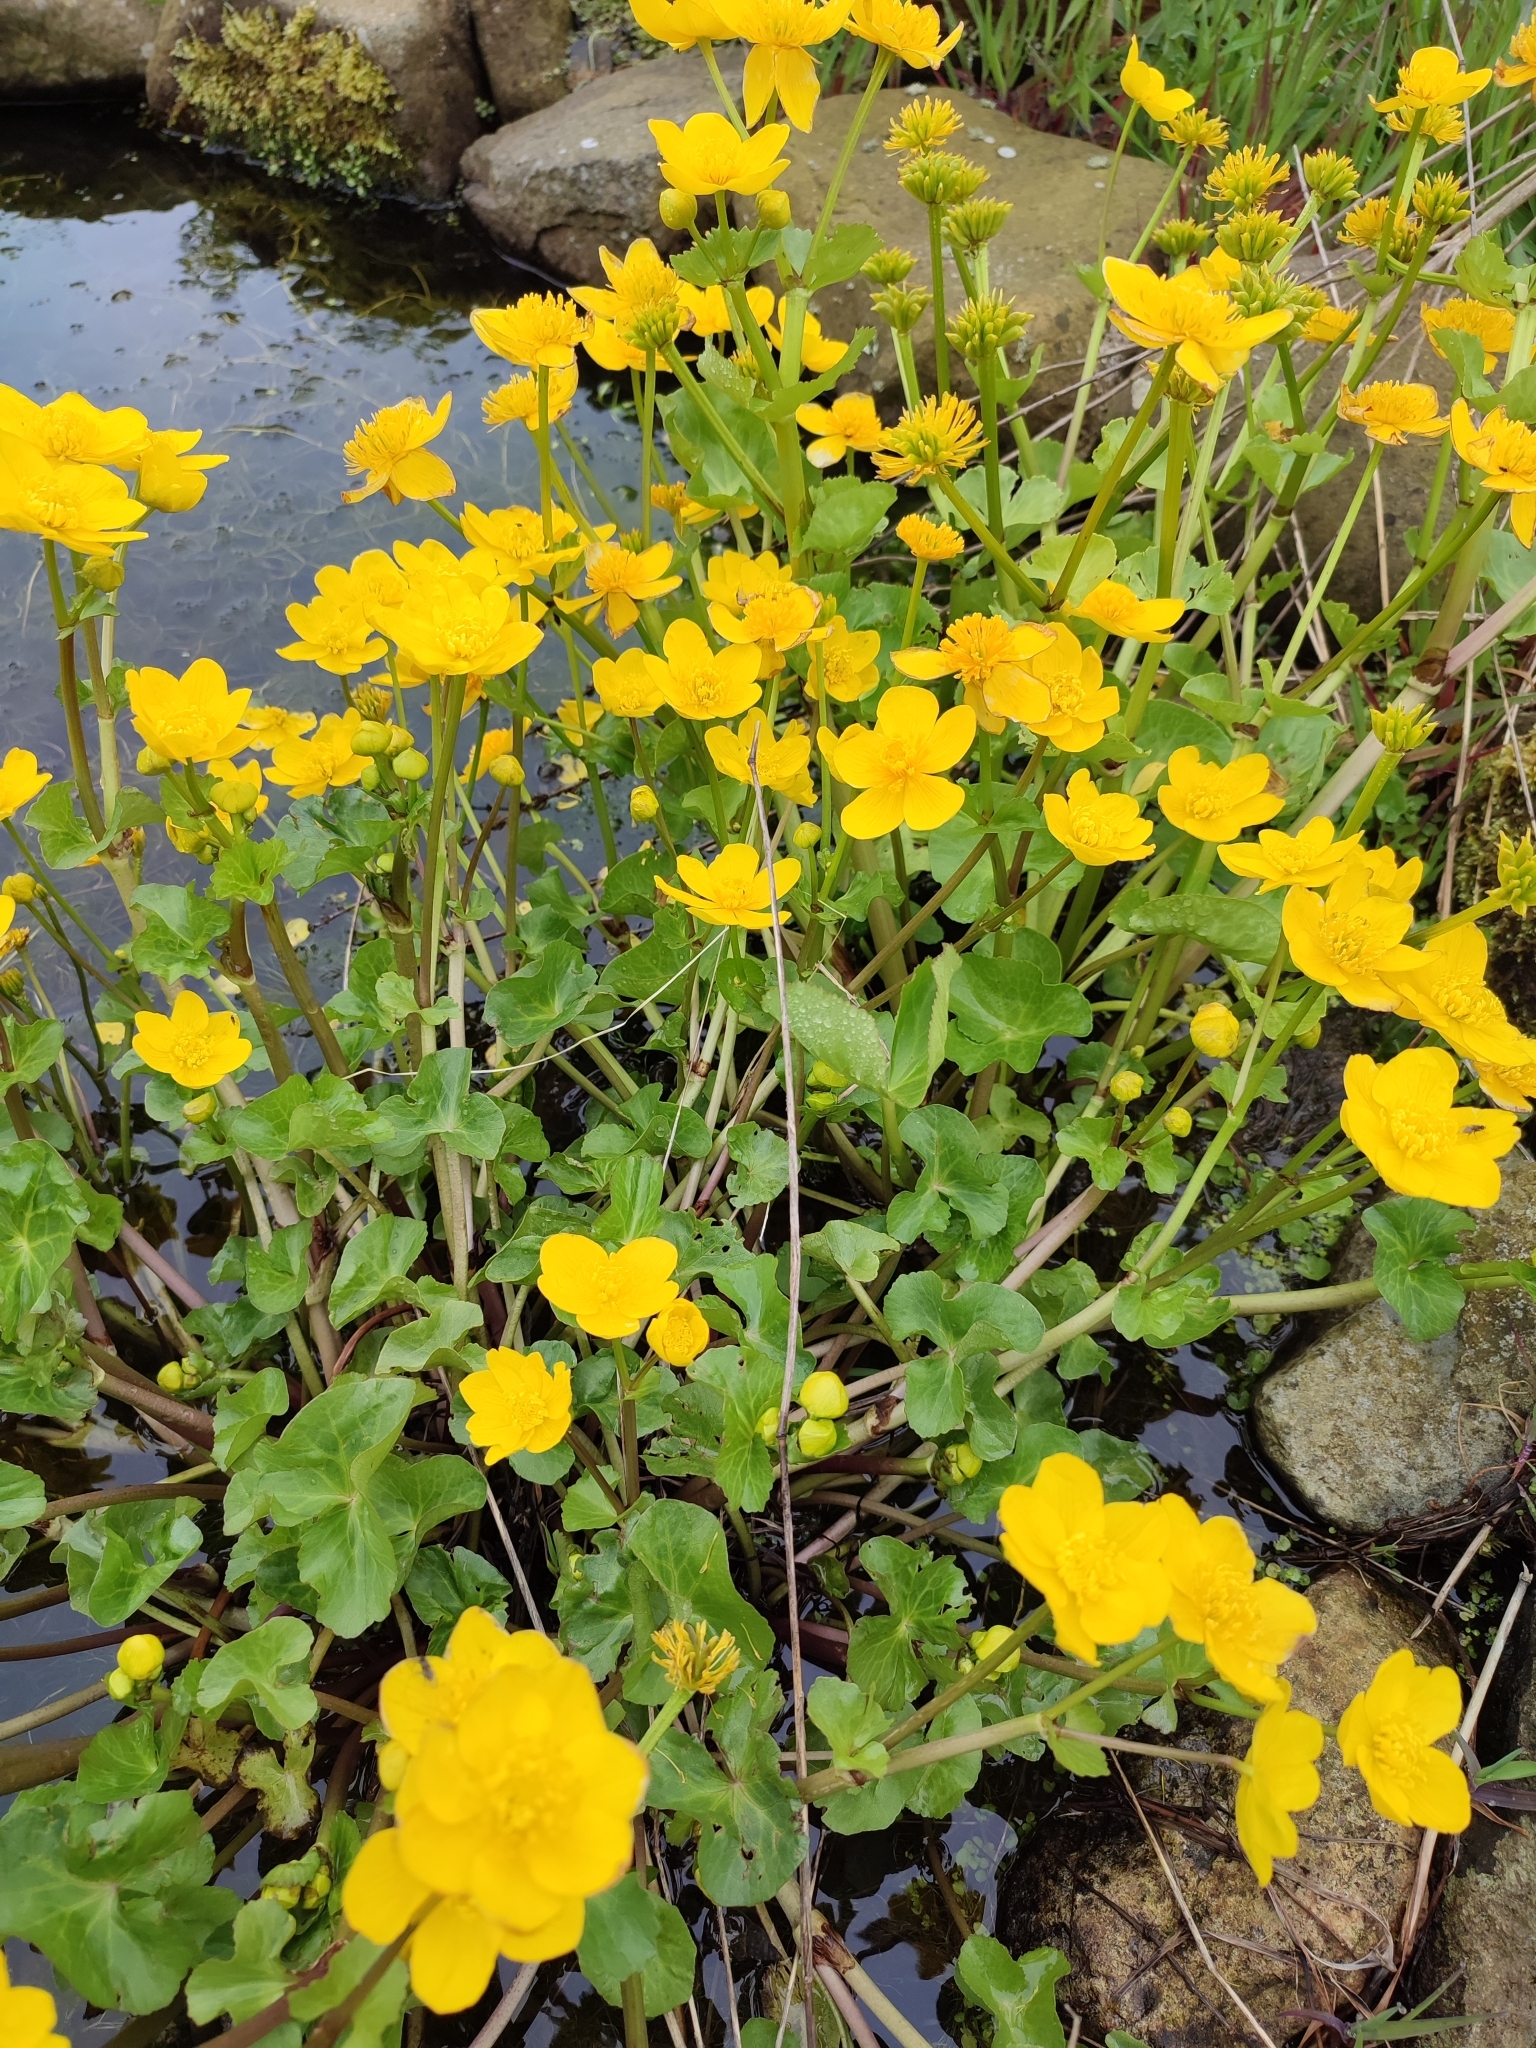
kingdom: Plantae
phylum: Tracheophyta
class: Magnoliopsida
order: Ranunculales
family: Ranunculaceae
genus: Caltha
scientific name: Caltha palustris
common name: Marsh marigold
